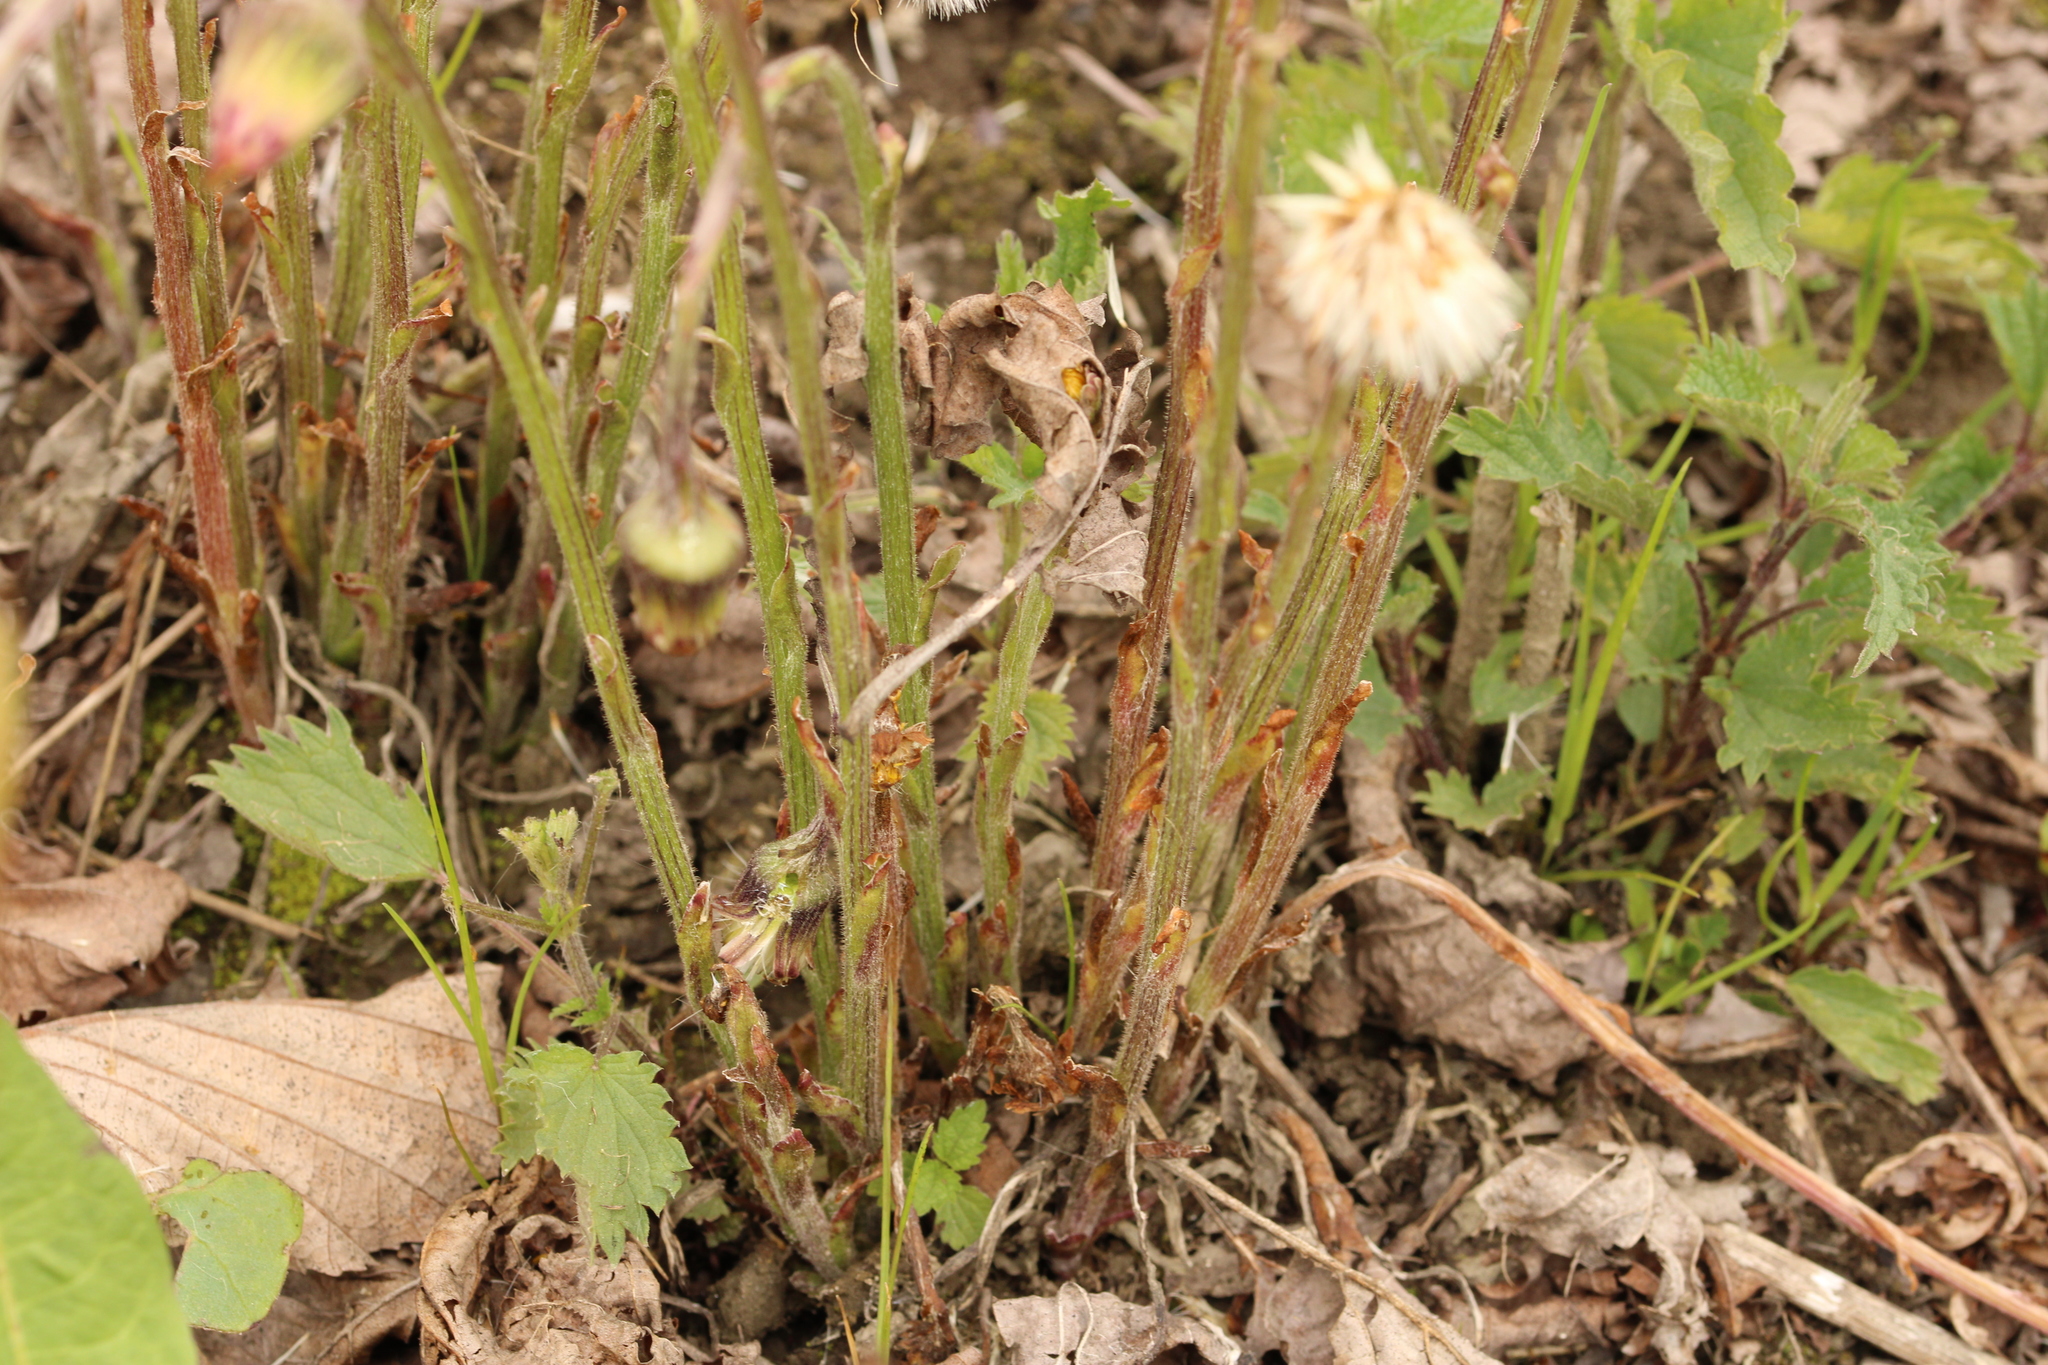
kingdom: Plantae
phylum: Tracheophyta
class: Magnoliopsida
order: Asterales
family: Asteraceae
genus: Tussilago
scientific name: Tussilago farfara
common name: Coltsfoot
